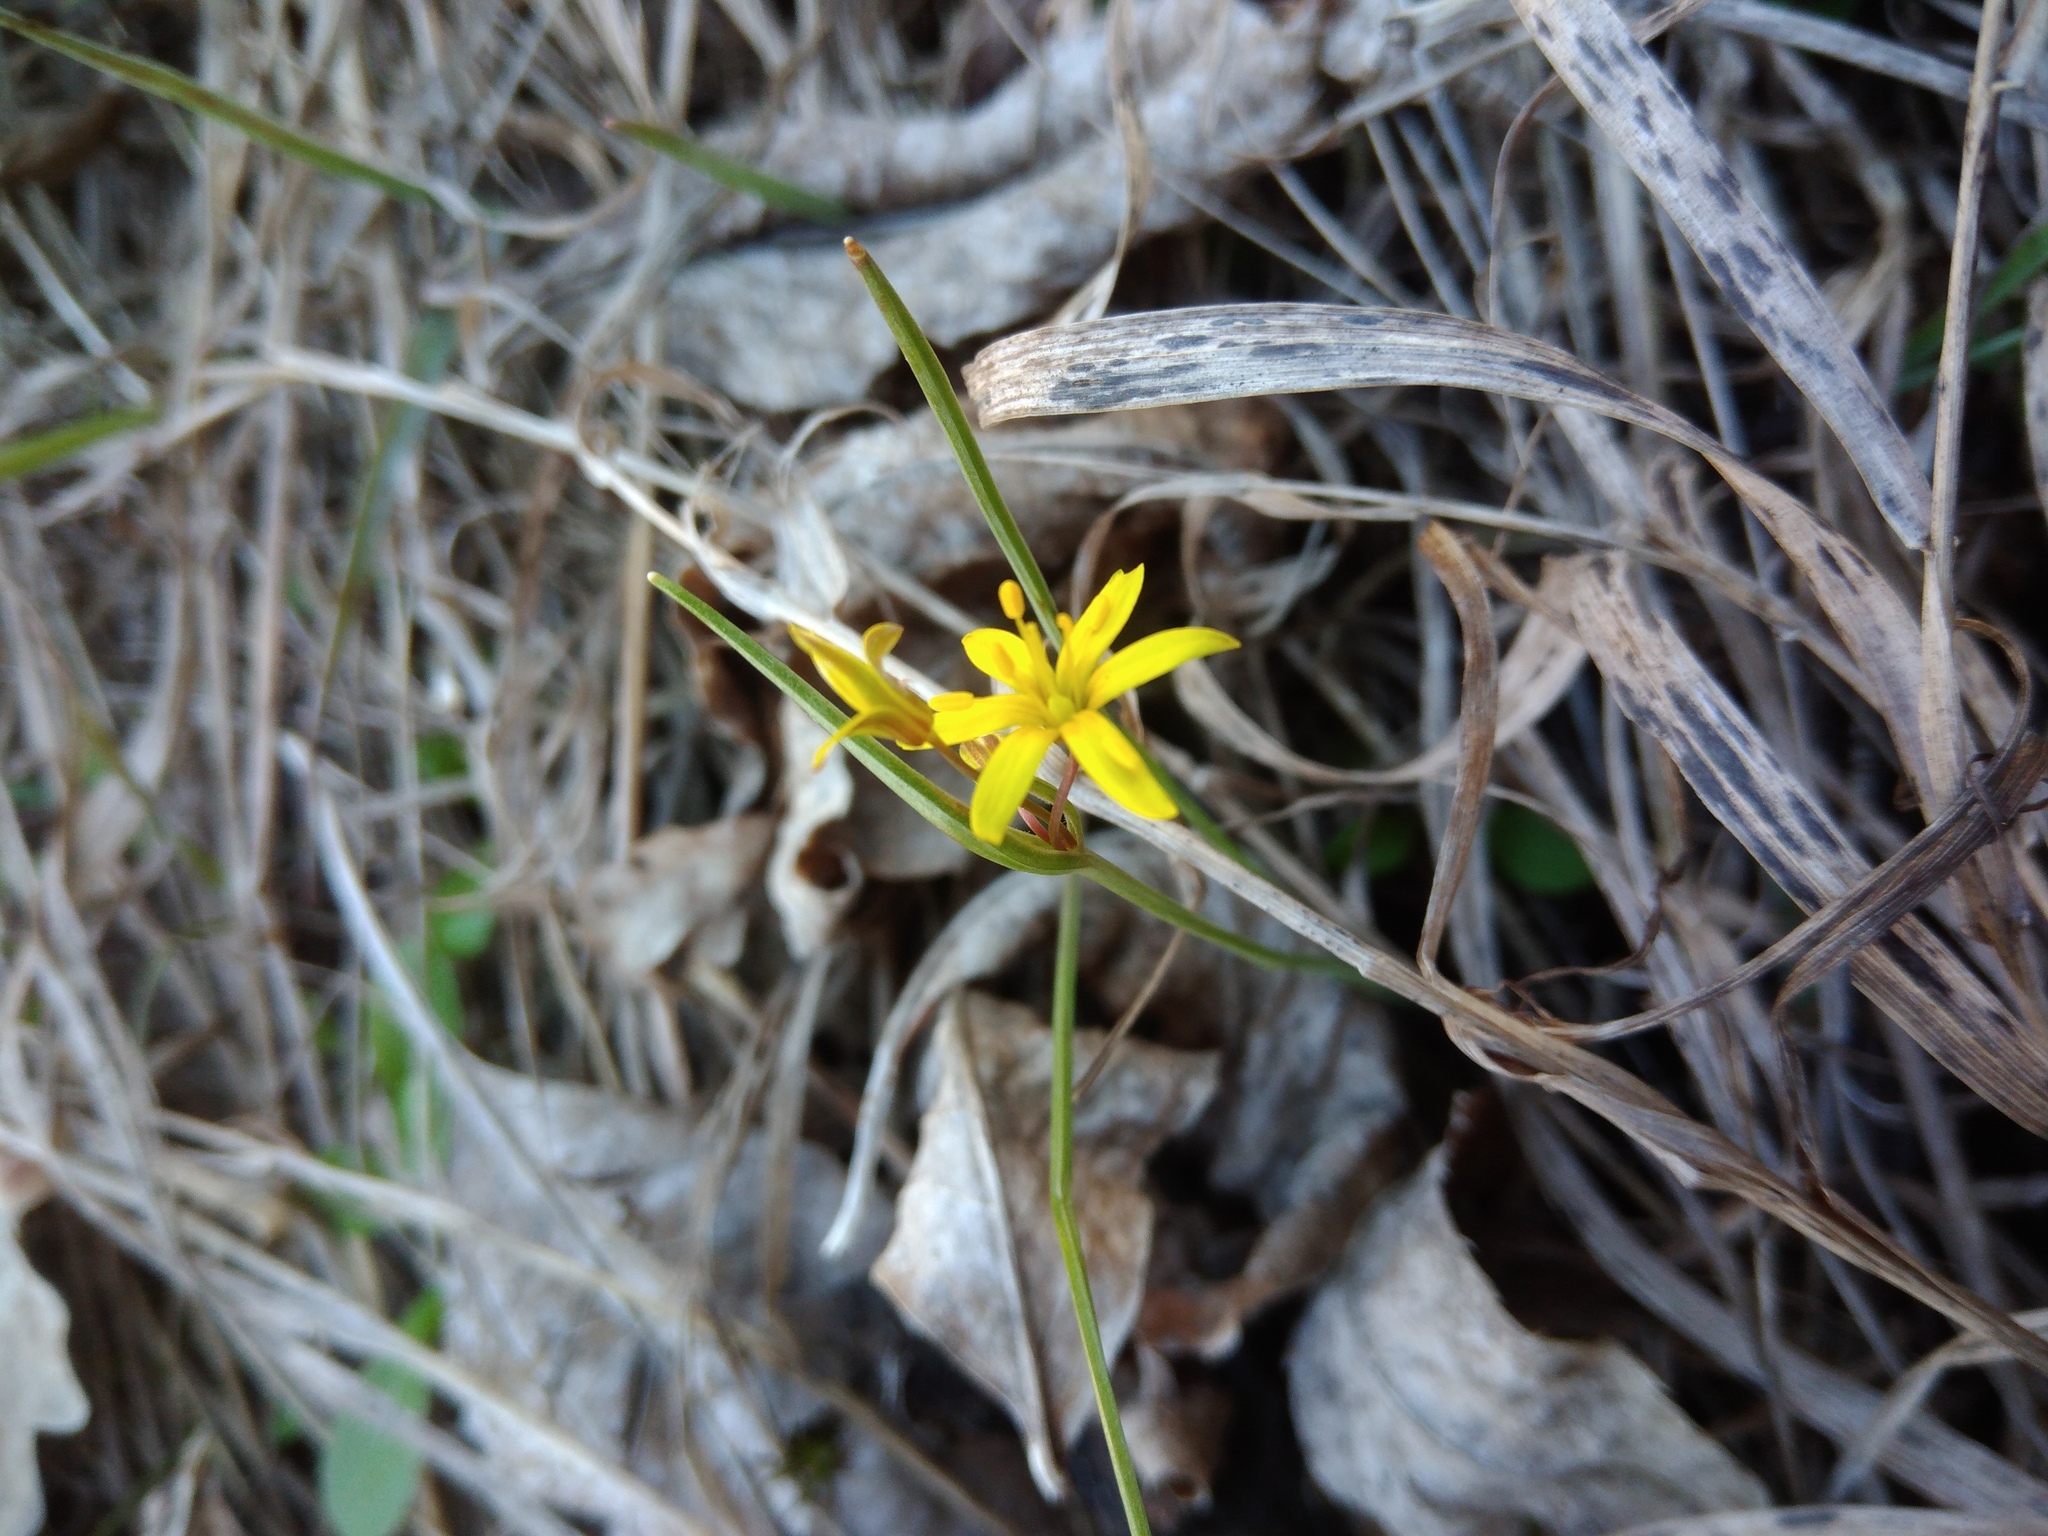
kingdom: Plantae
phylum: Tracheophyta
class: Liliopsida
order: Liliales
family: Liliaceae
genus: Gagea
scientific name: Gagea fragifera
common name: Lily
